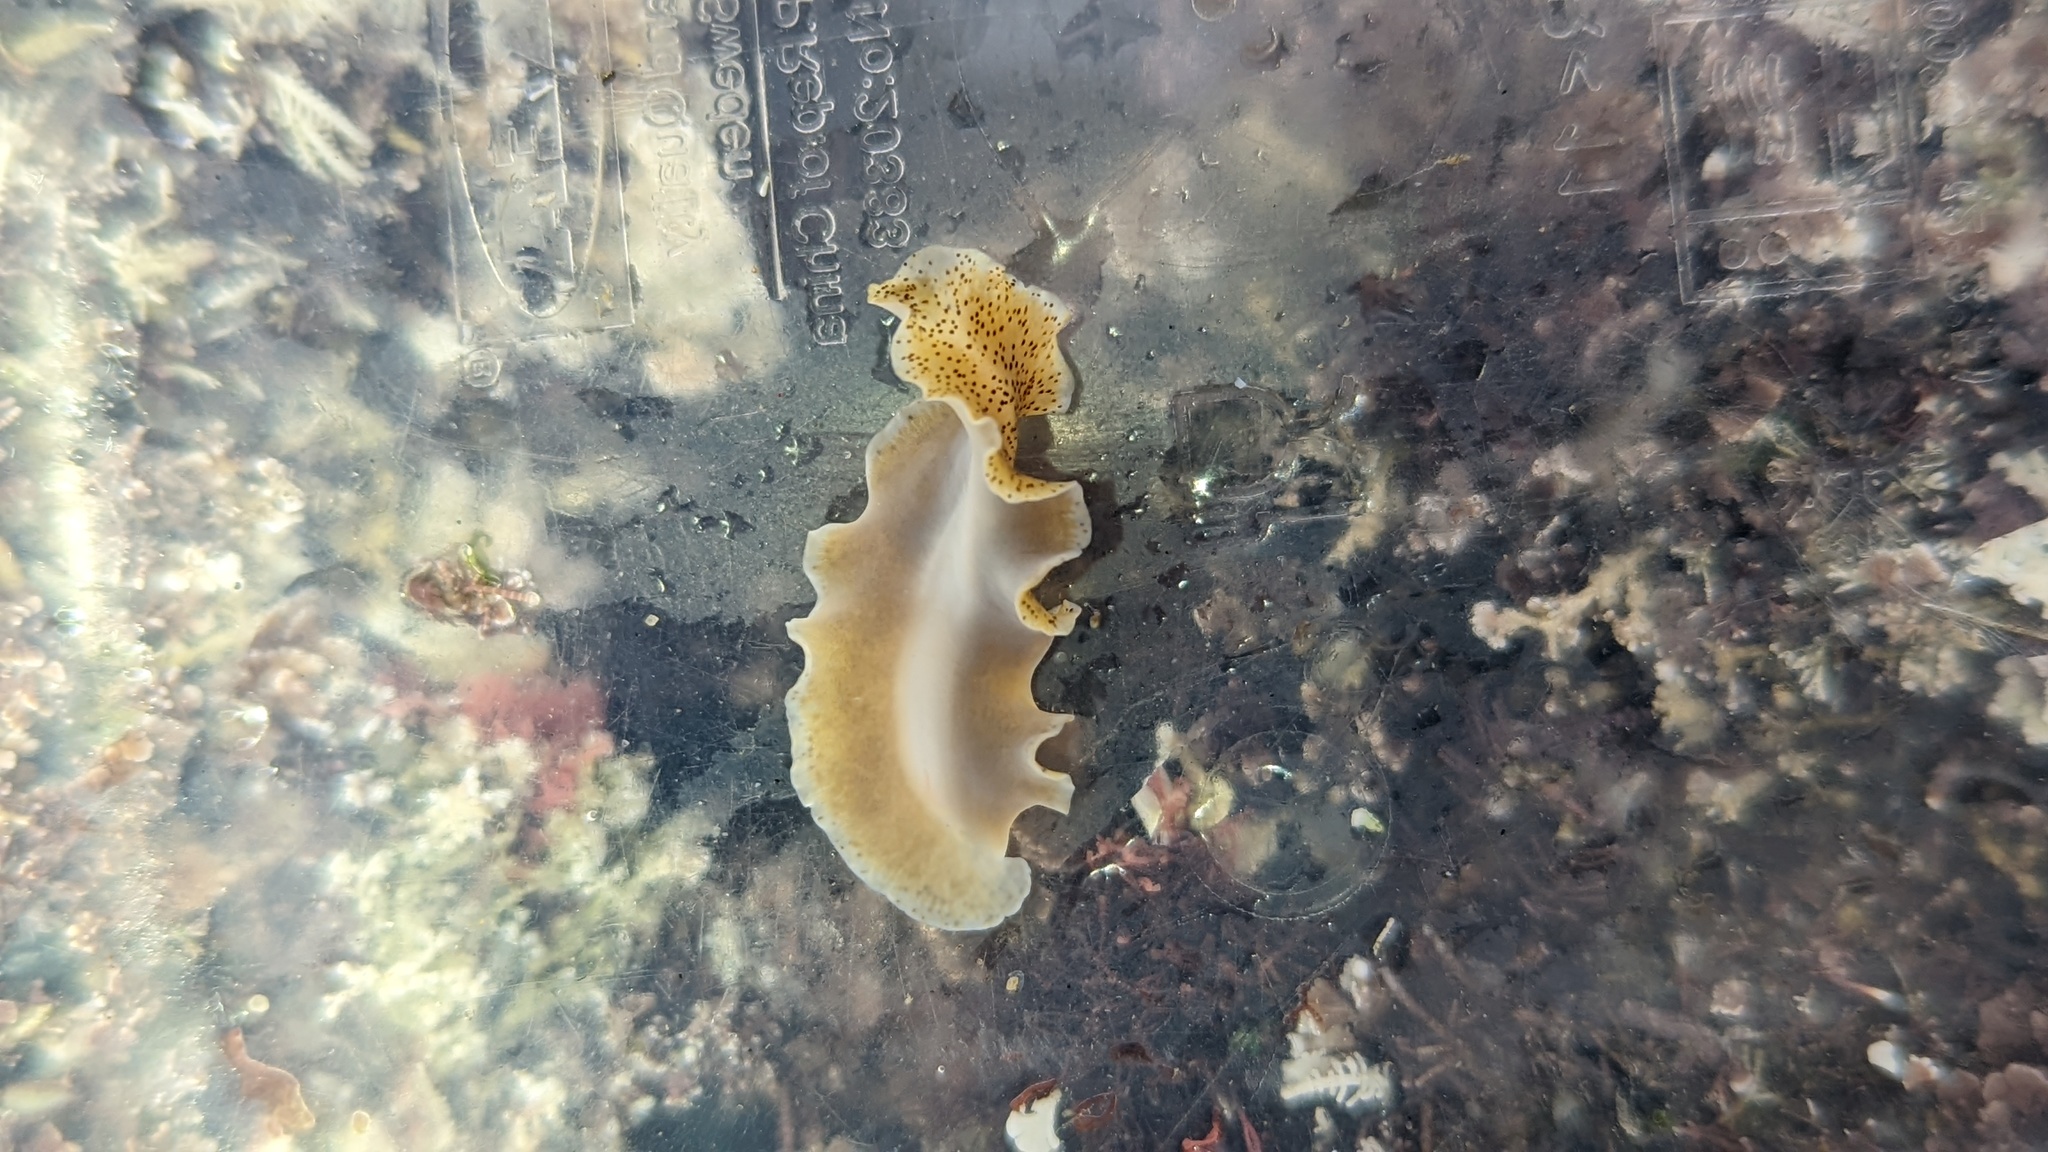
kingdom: Animalia
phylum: Platyhelminthes
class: Turbellaria
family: Prosthiostomidae
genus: Enchiridium
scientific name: Enchiridium punctatum
